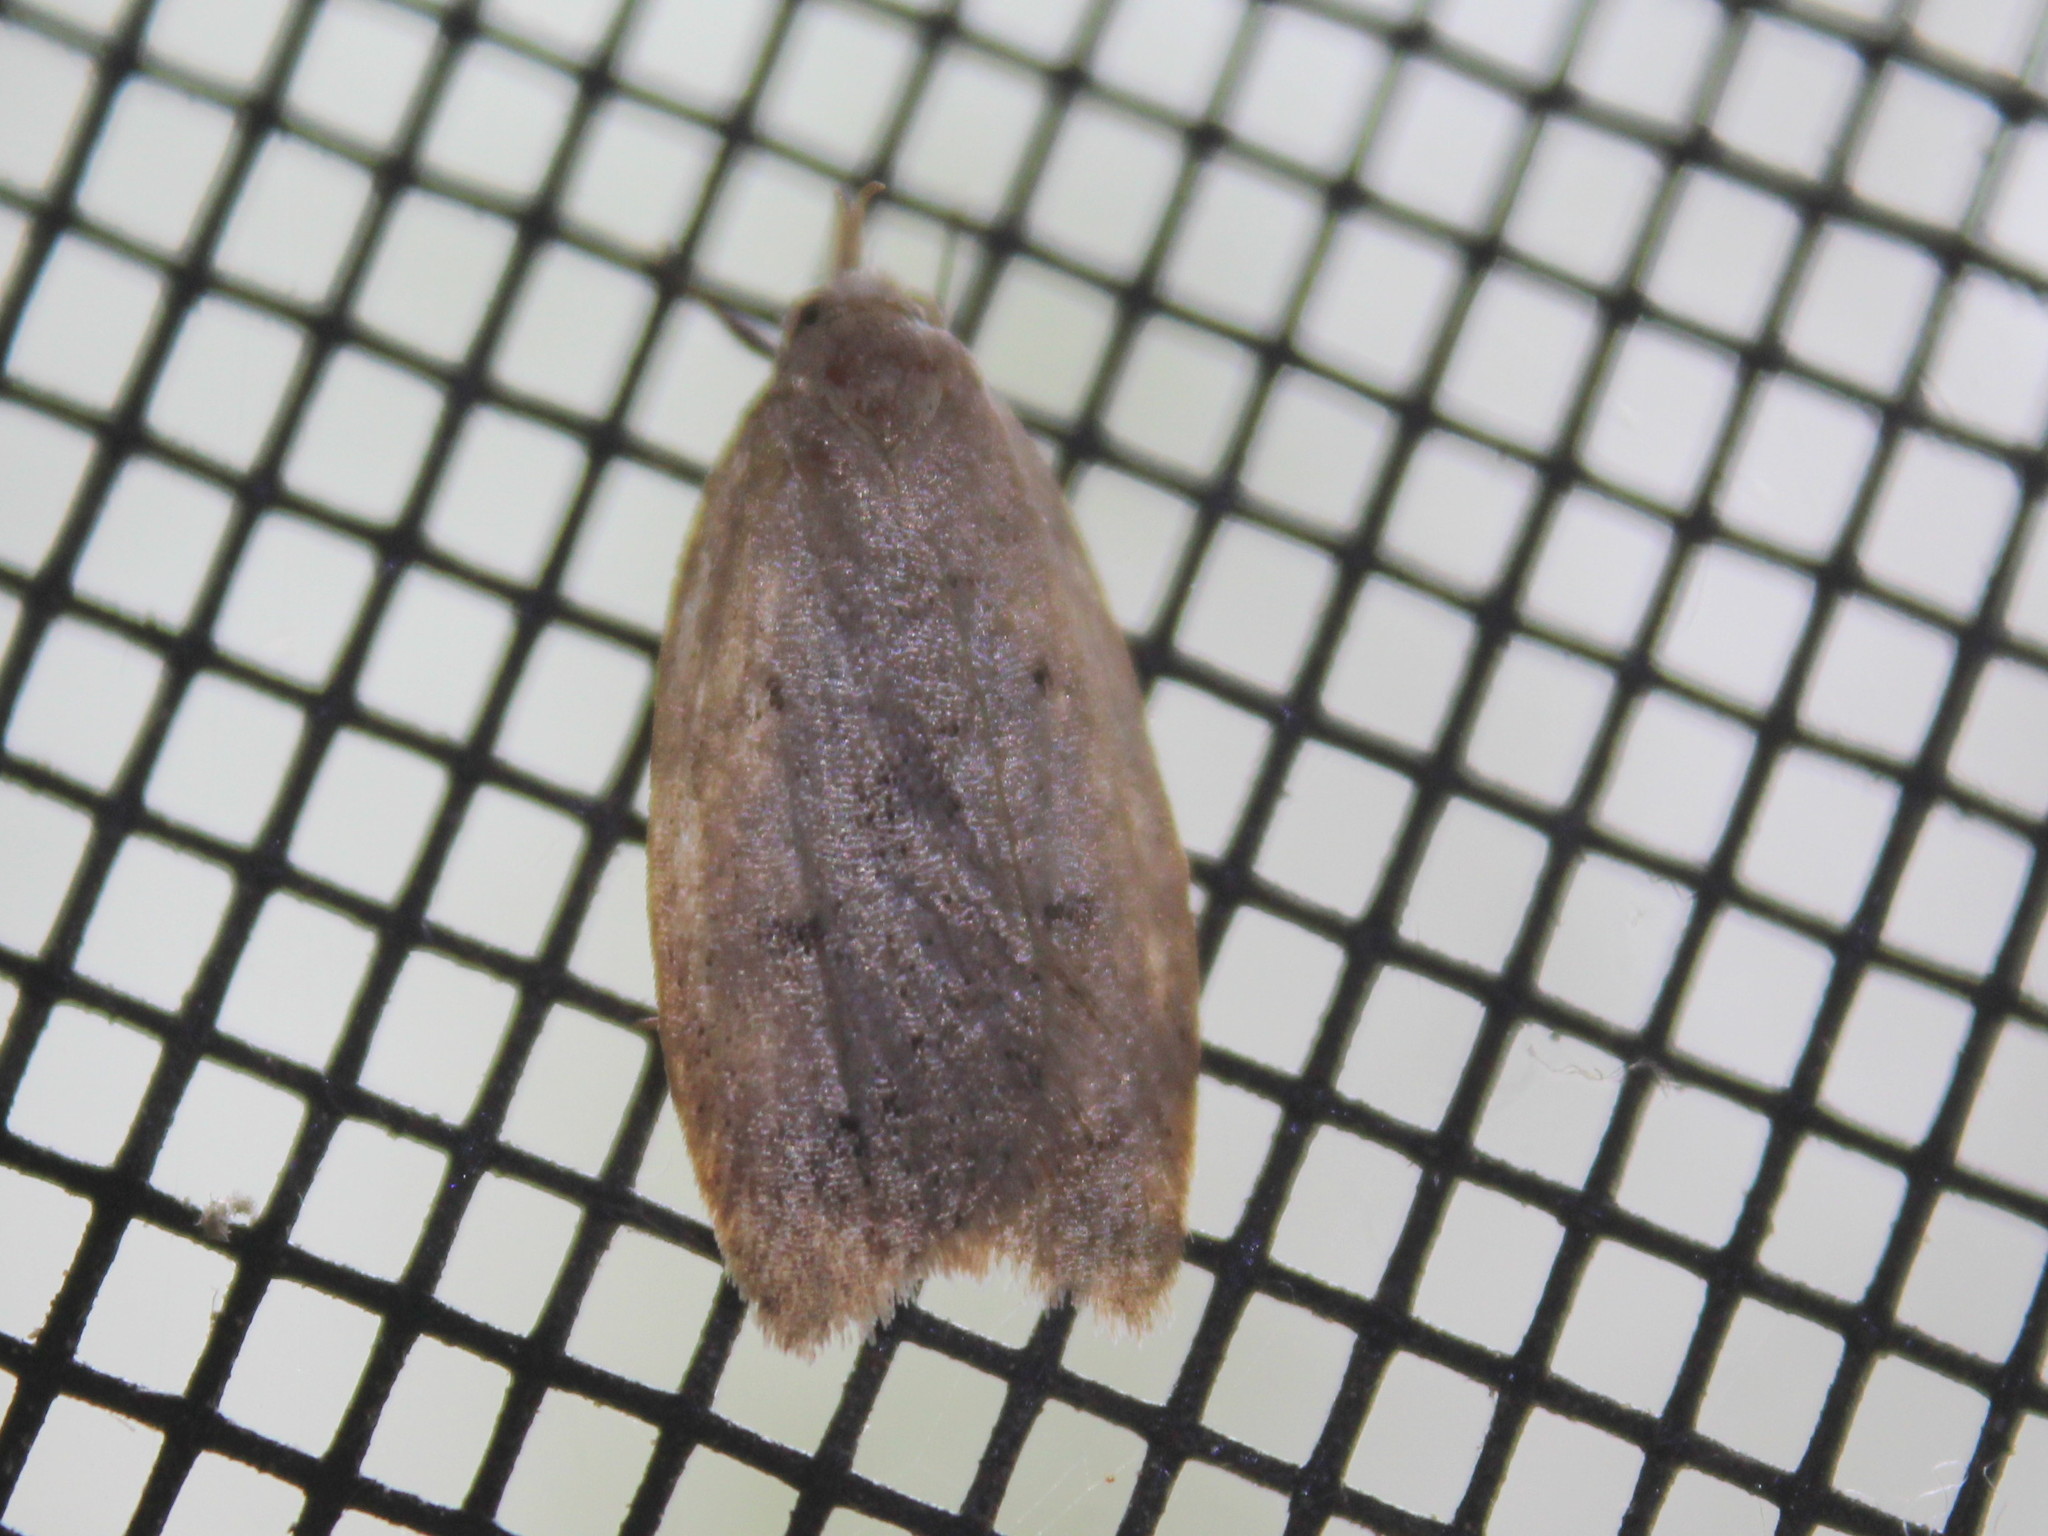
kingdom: Animalia
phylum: Arthropoda
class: Insecta
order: Lepidoptera
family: Peleopodidae
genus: Machimia
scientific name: Machimia tentoriferella
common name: Gold-striped leaftier moth
